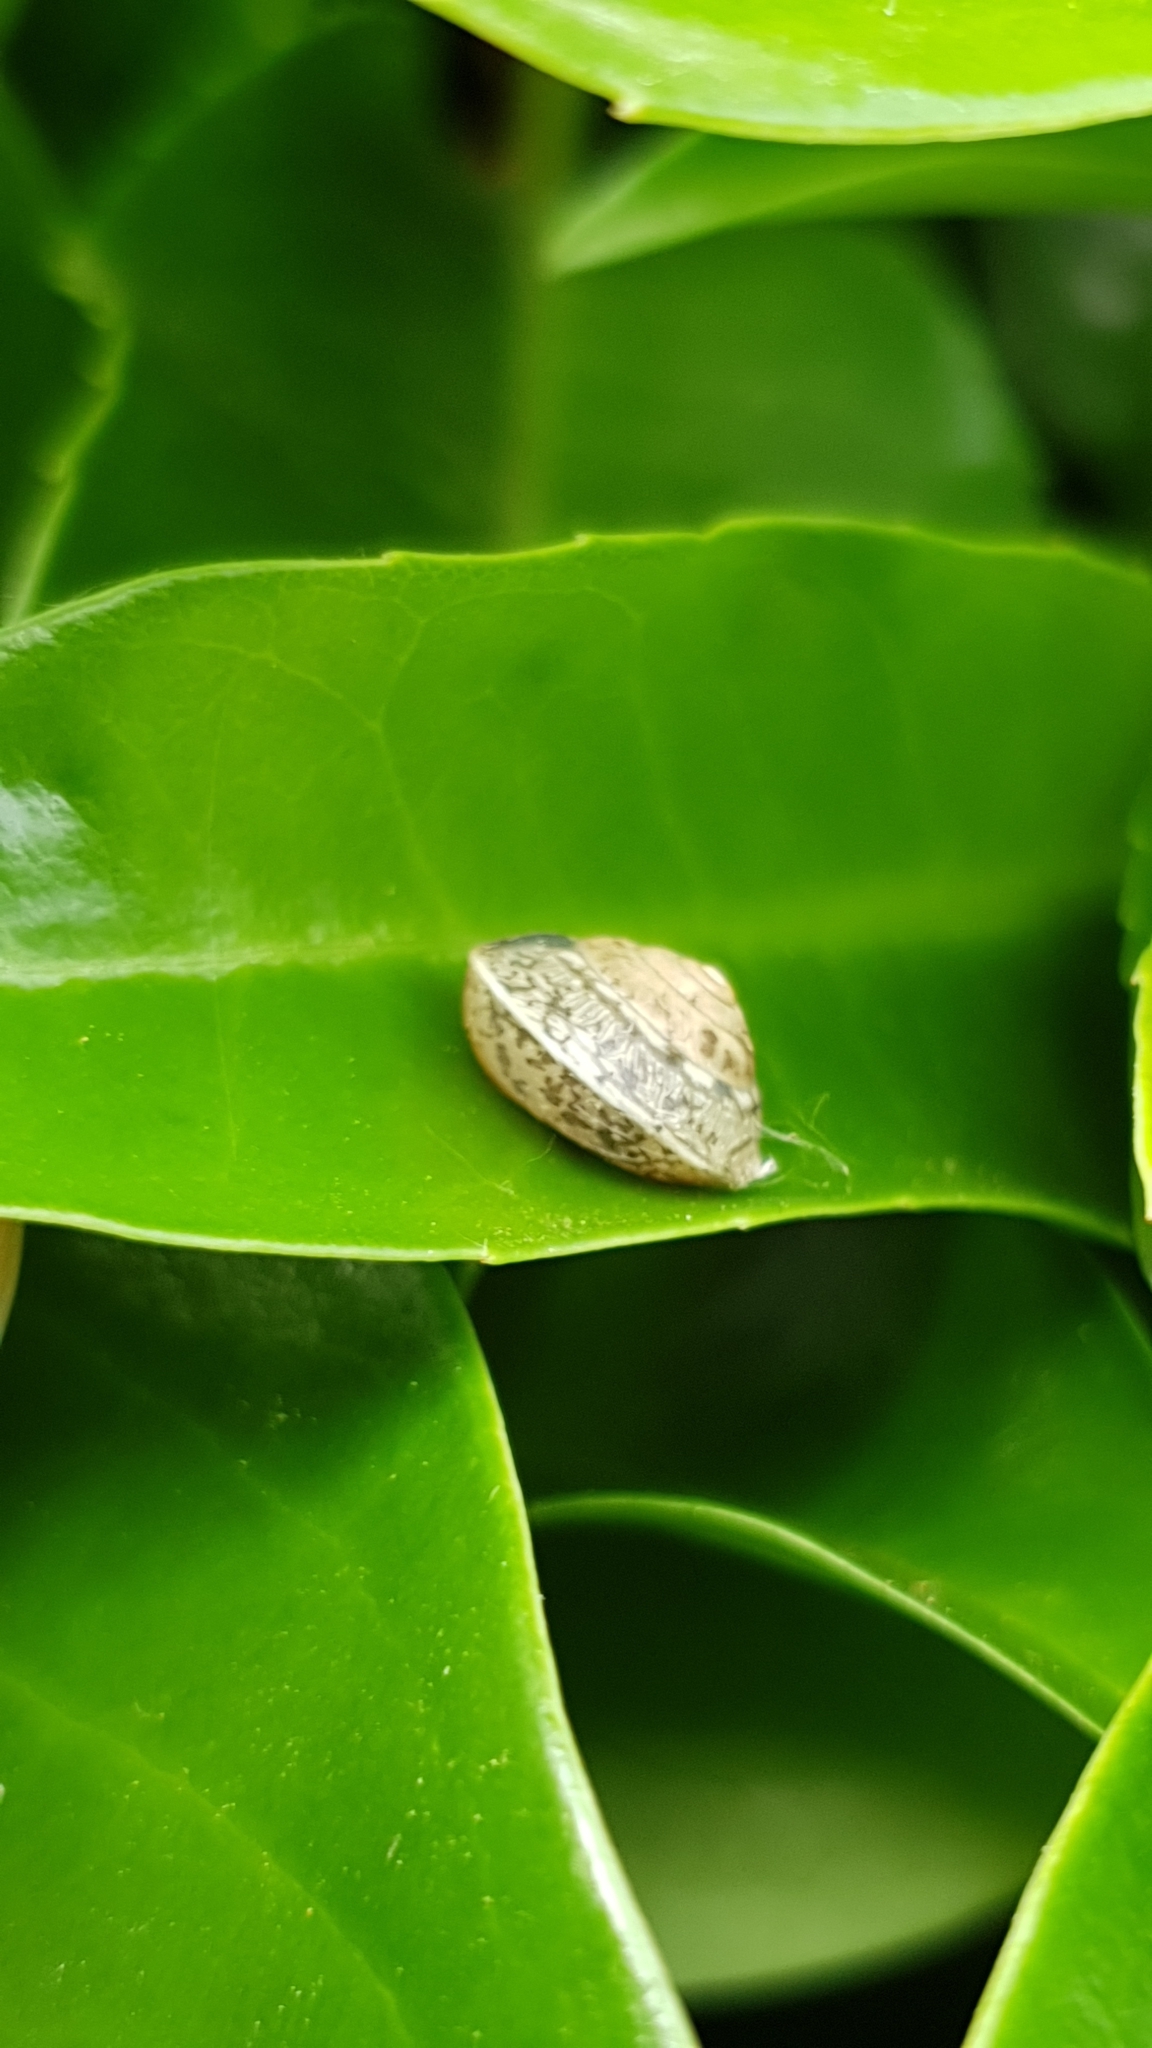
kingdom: Animalia
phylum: Mollusca
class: Gastropoda
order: Stylommatophora
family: Hygromiidae
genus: Hygromia
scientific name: Hygromia cinctella
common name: Girdled snail
